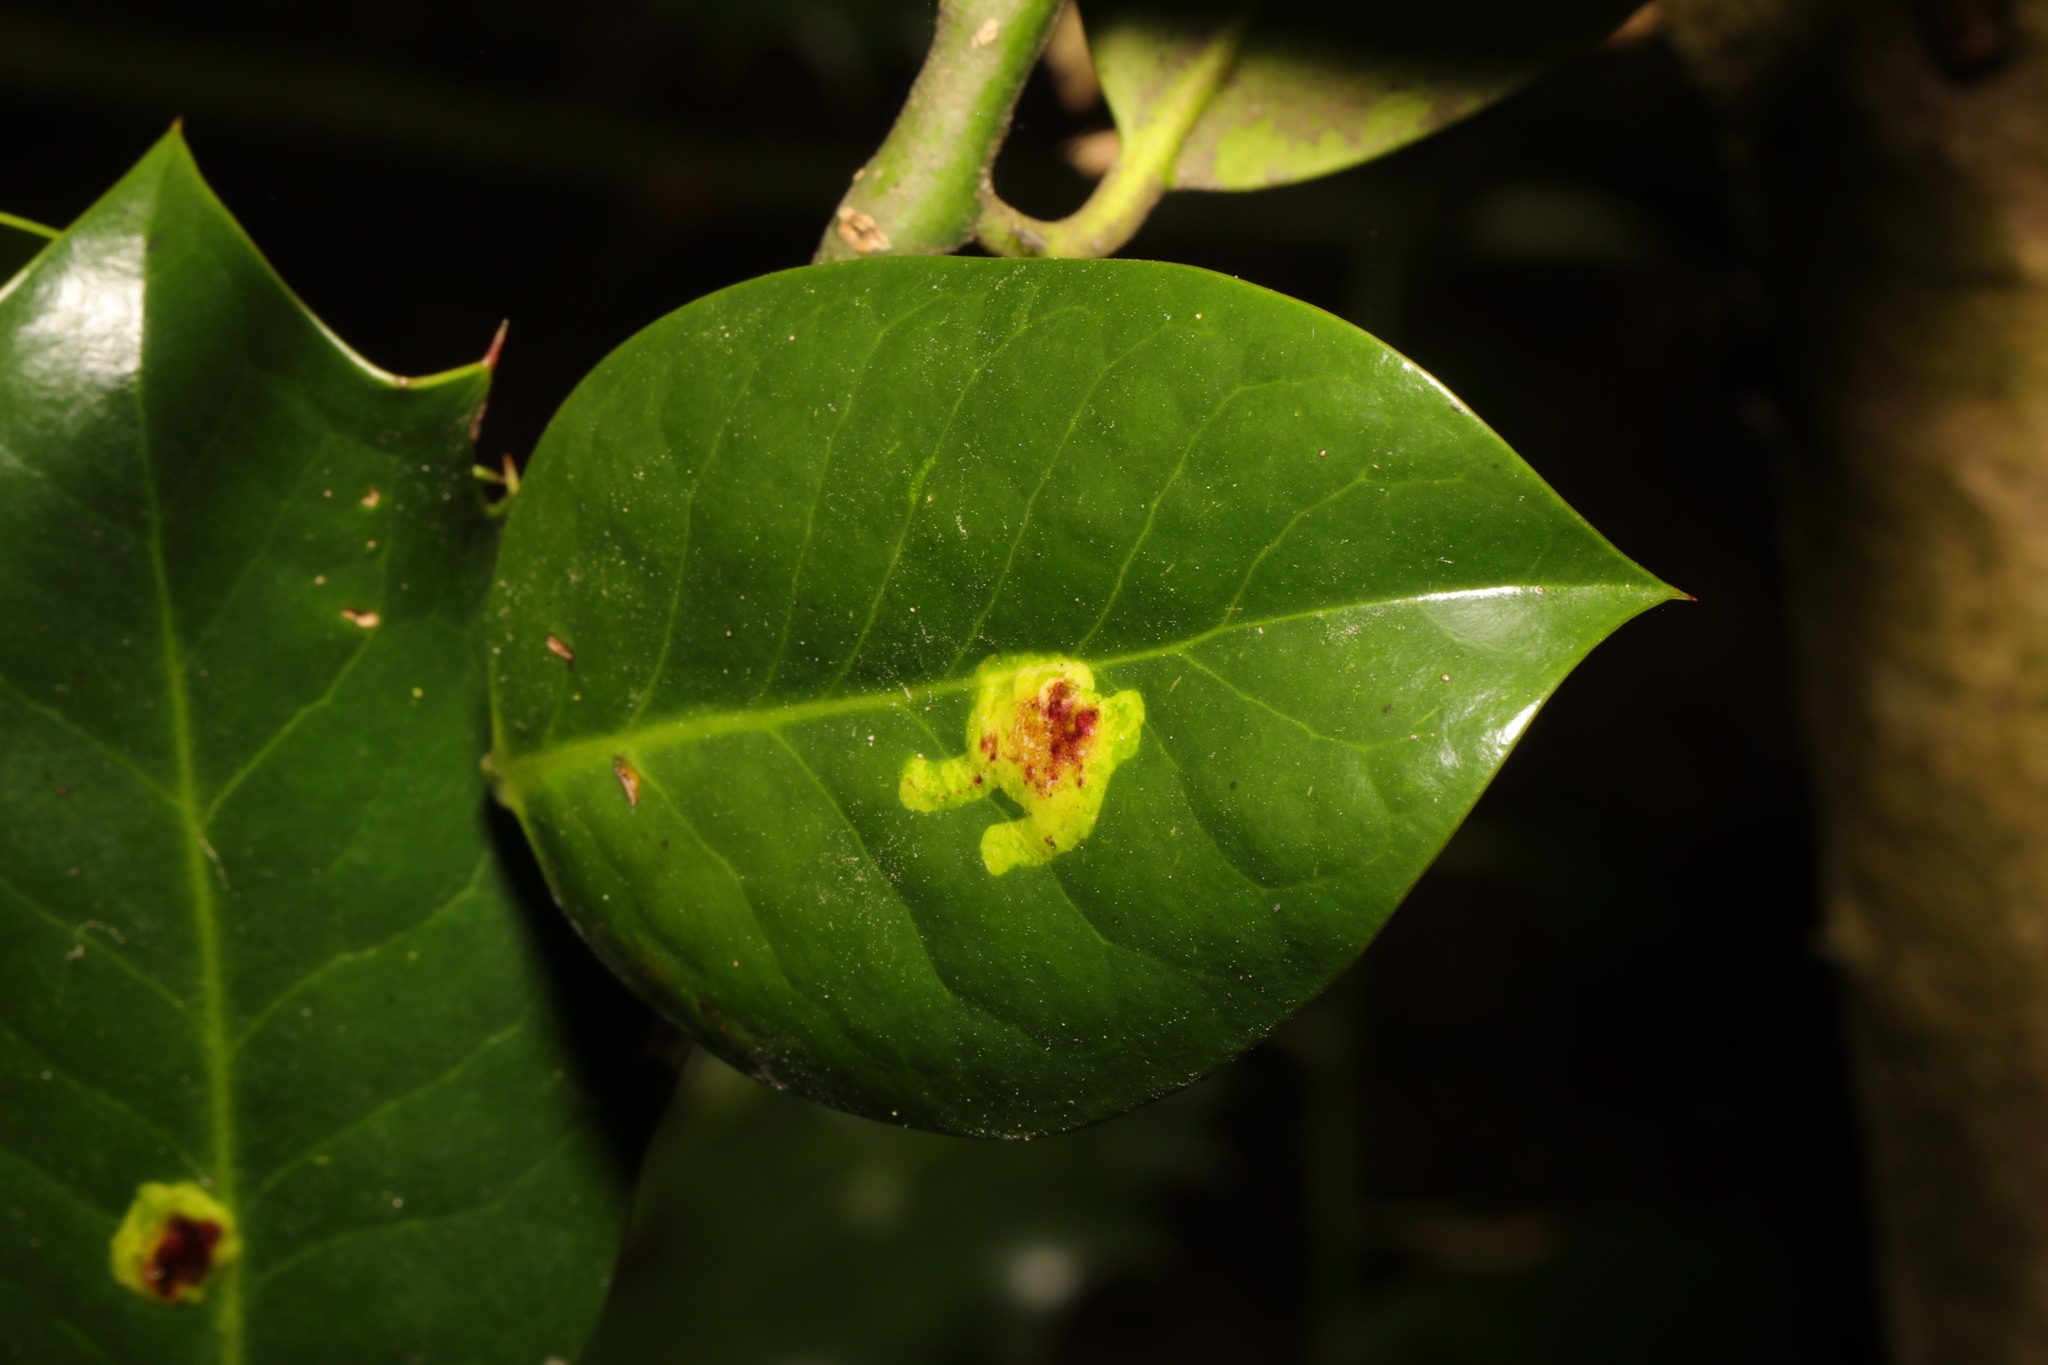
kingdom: Animalia
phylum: Arthropoda
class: Insecta
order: Diptera
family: Agromyzidae
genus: Phytomyza
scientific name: Phytomyza ilicis
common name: Holly leafminer
